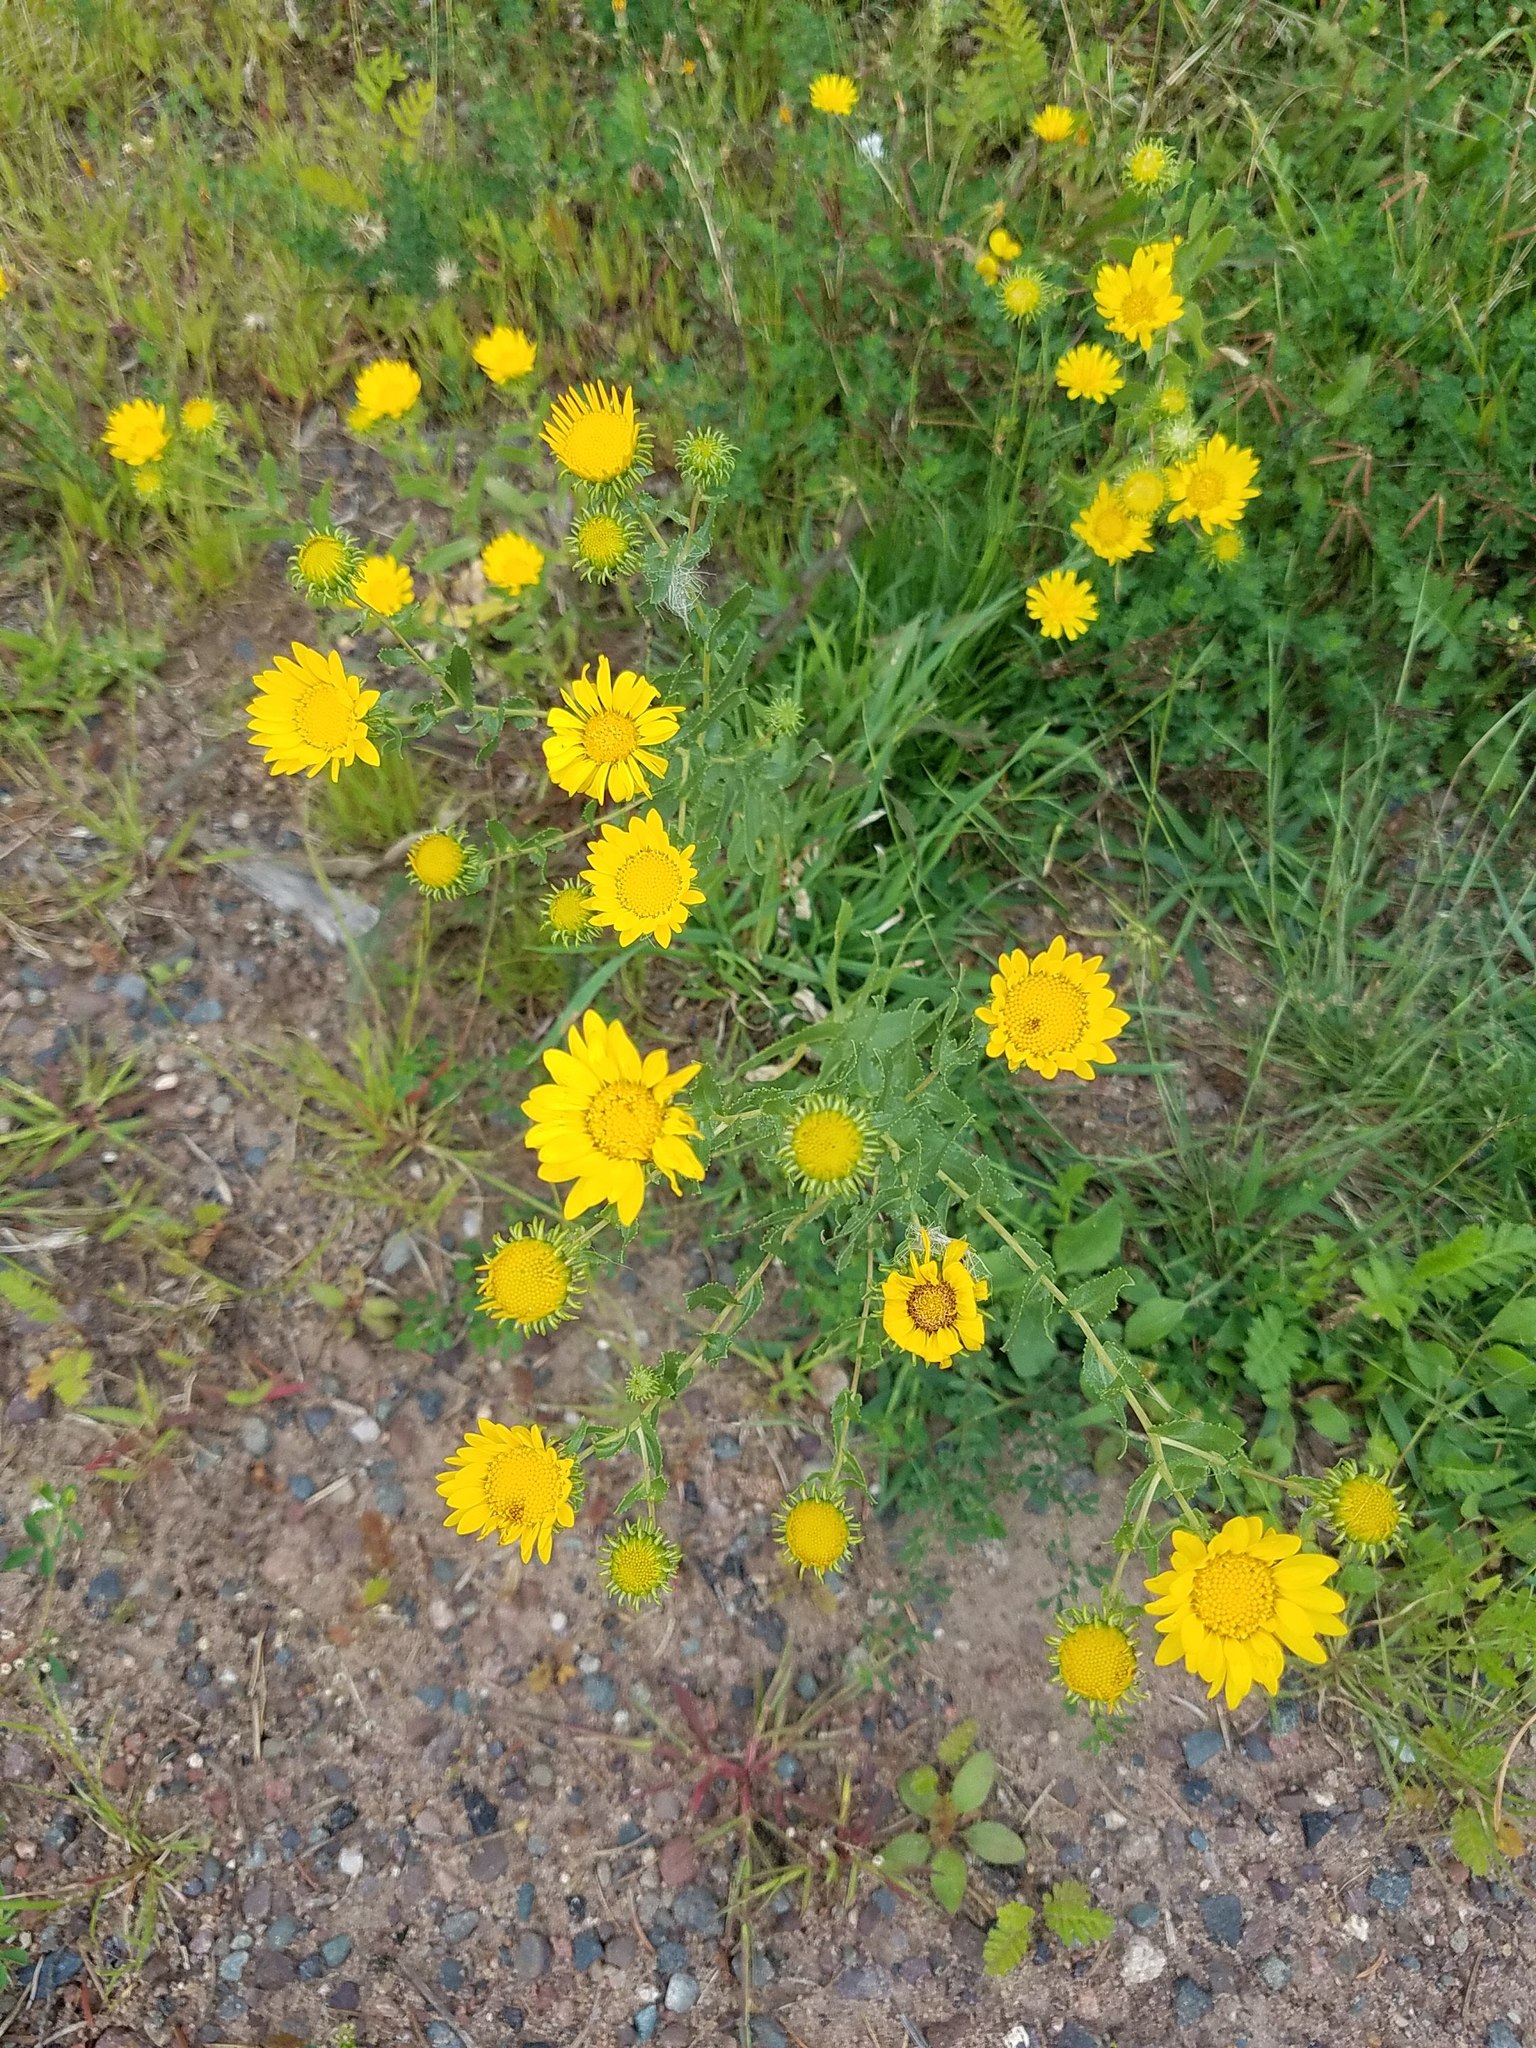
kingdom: Plantae
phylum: Tracheophyta
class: Magnoliopsida
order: Asterales
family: Asteraceae
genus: Grindelia
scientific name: Grindelia squarrosa
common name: Curly-cup gumweed
